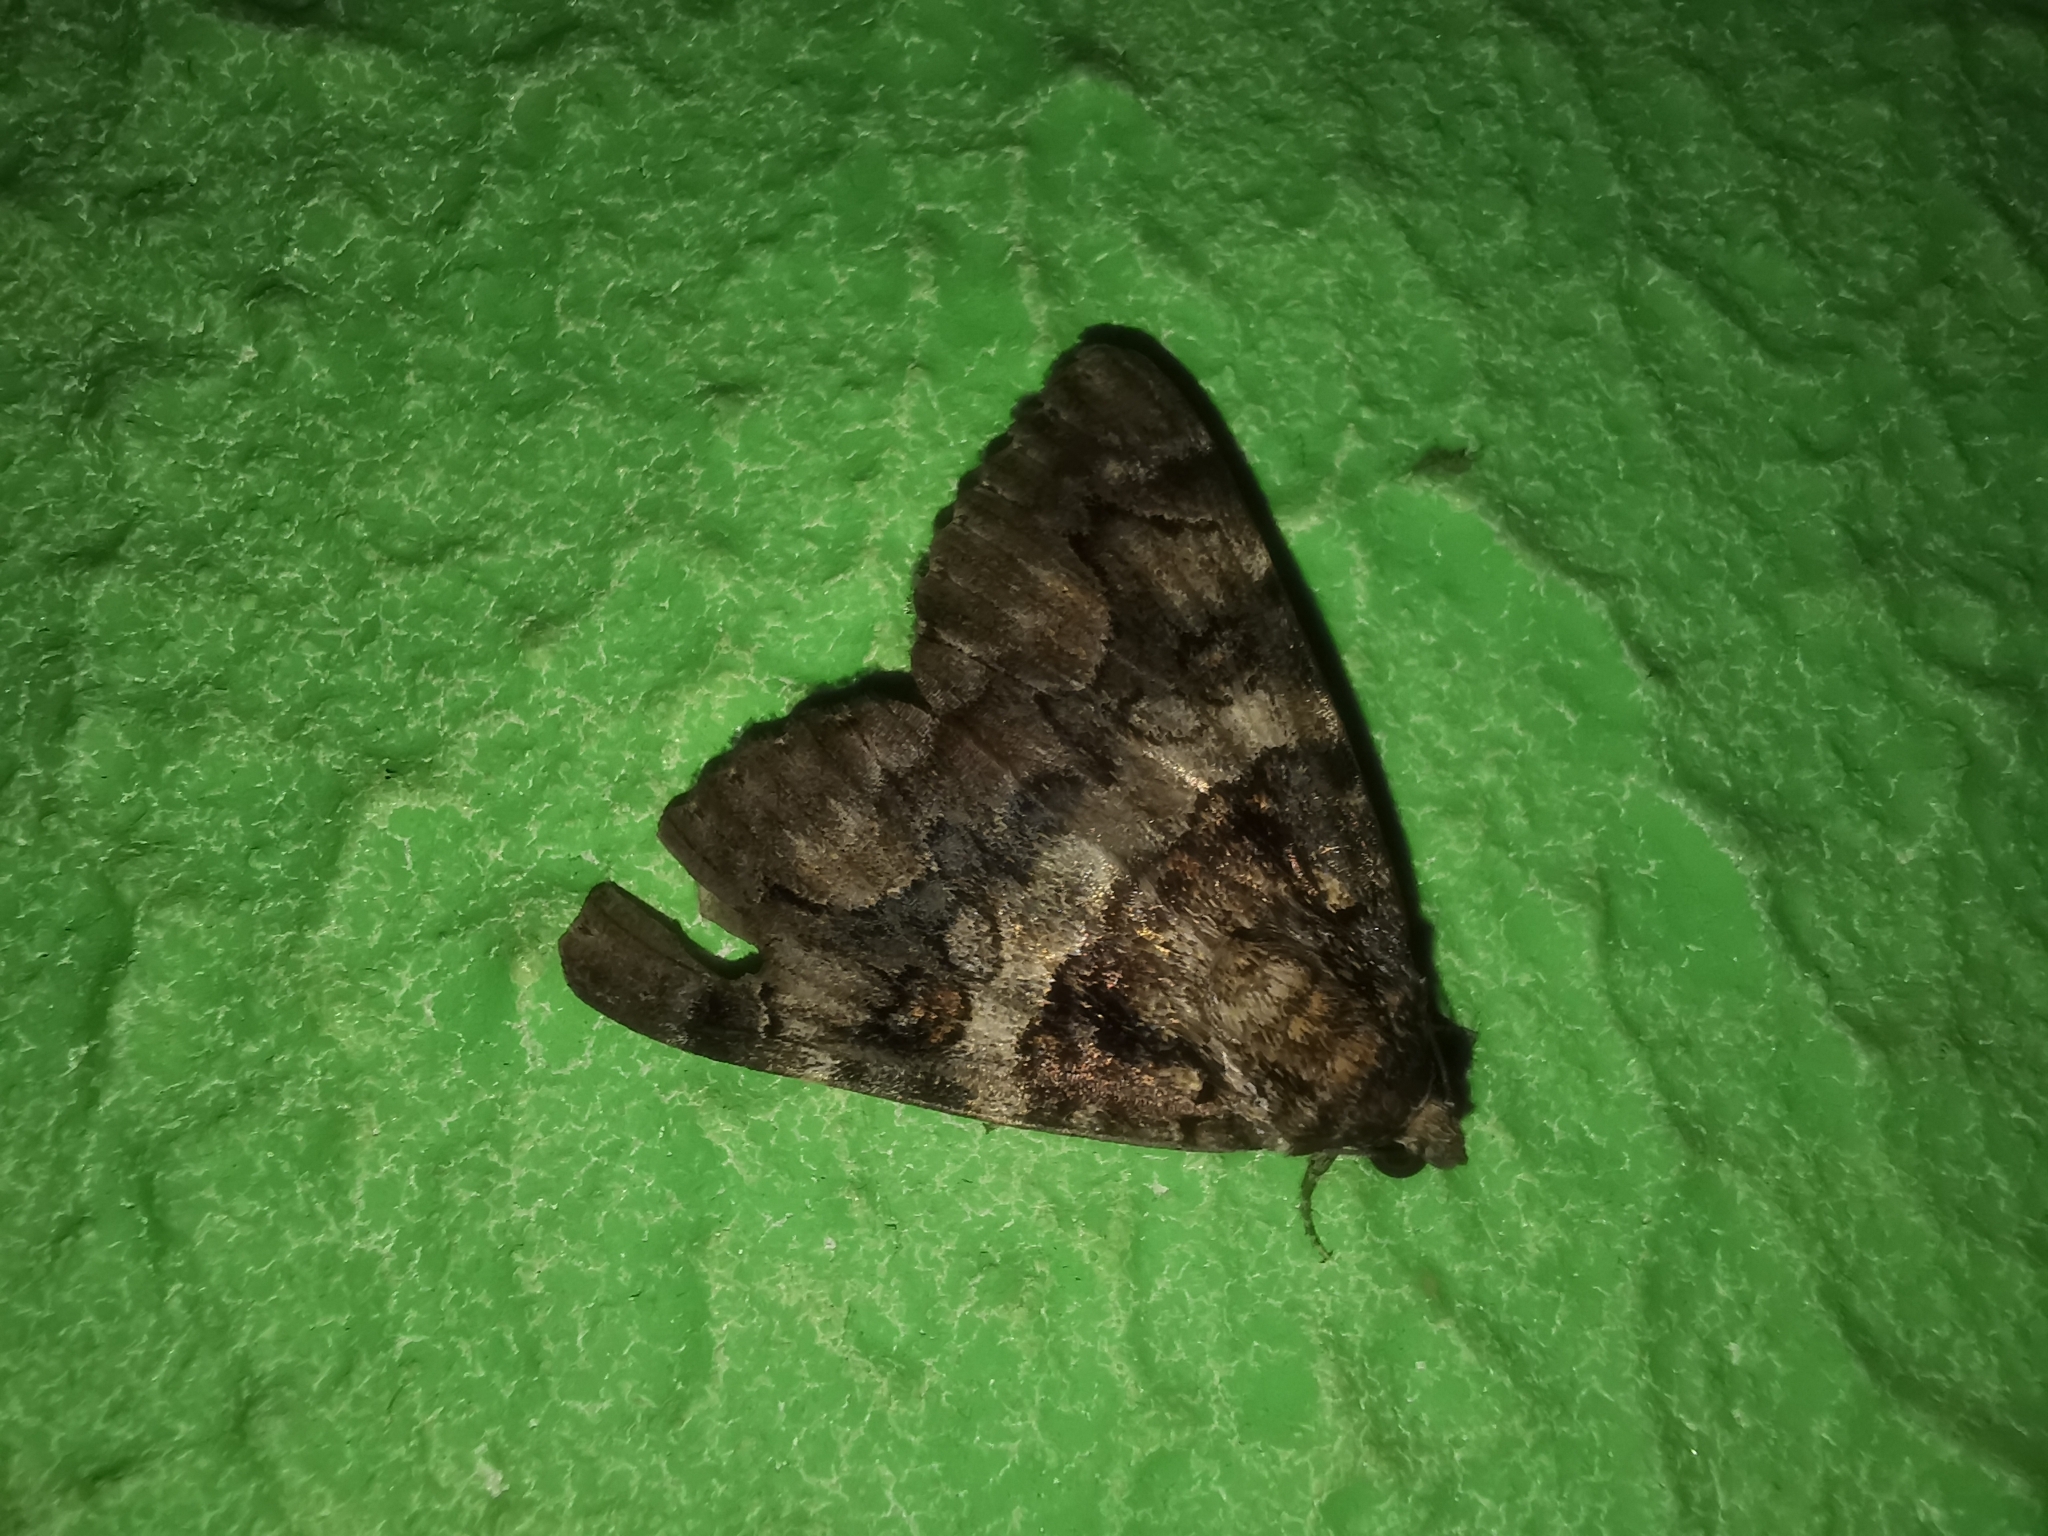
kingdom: Animalia
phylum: Arthropoda
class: Insecta
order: Lepidoptera
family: Erebidae
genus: Catocala
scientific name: Catocala coniuncta
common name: Minsmere crimson underwing
